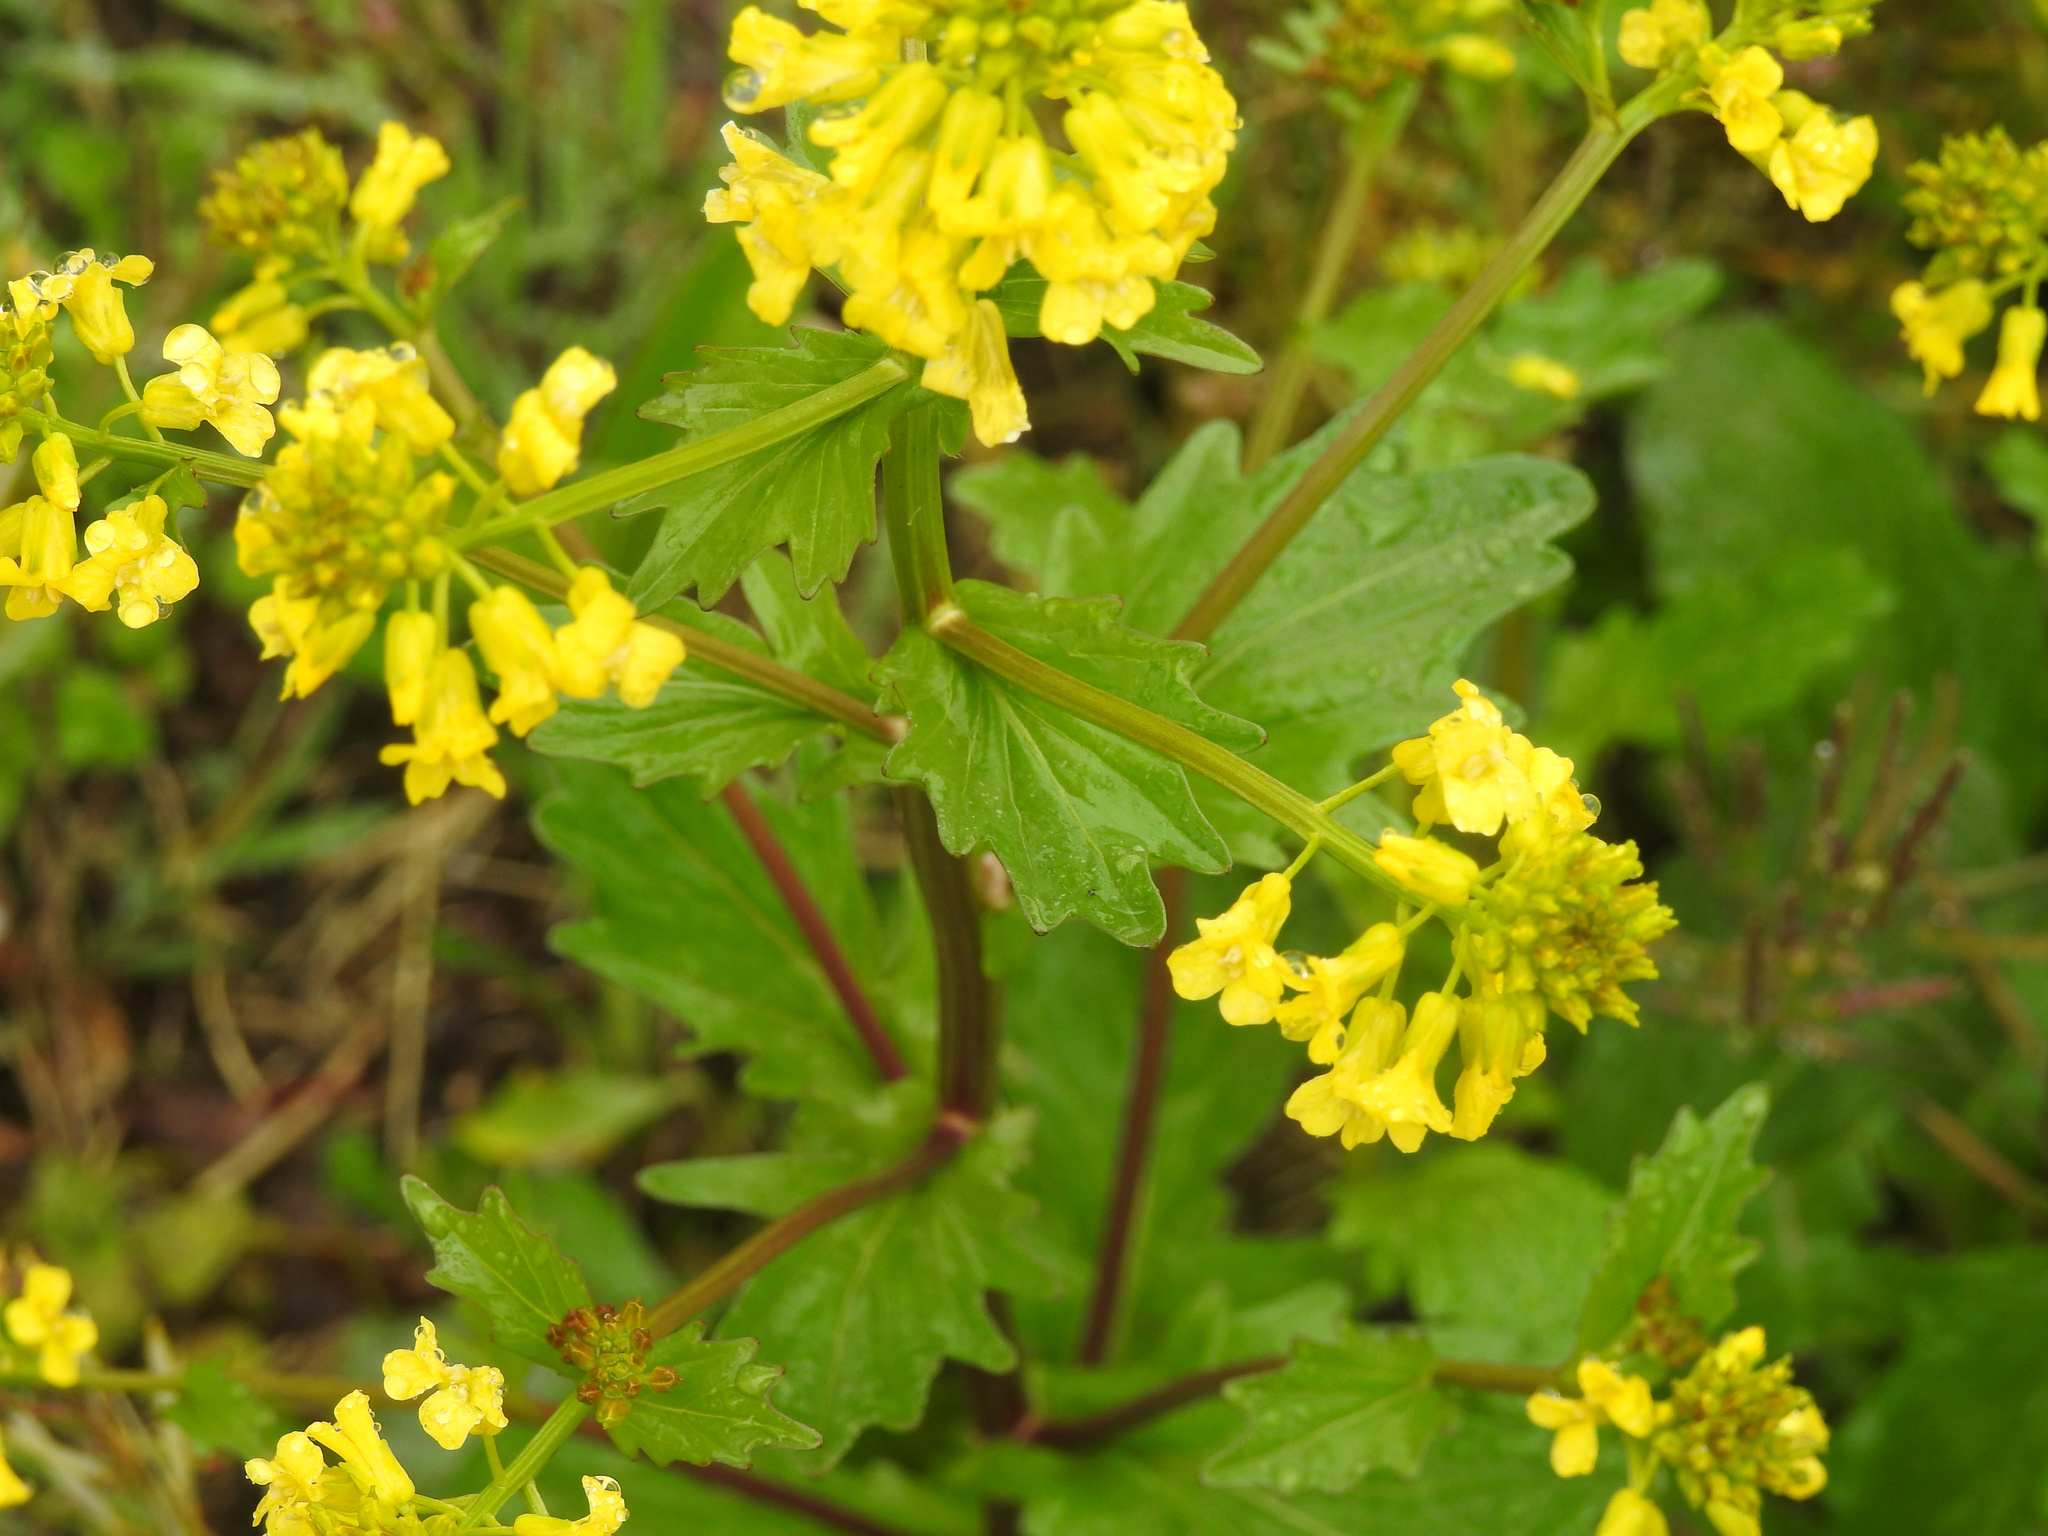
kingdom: Plantae
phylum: Tracheophyta
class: Magnoliopsida
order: Brassicales
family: Brassicaceae
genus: Barbarea
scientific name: Barbarea vulgaris
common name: Cressy-greens
